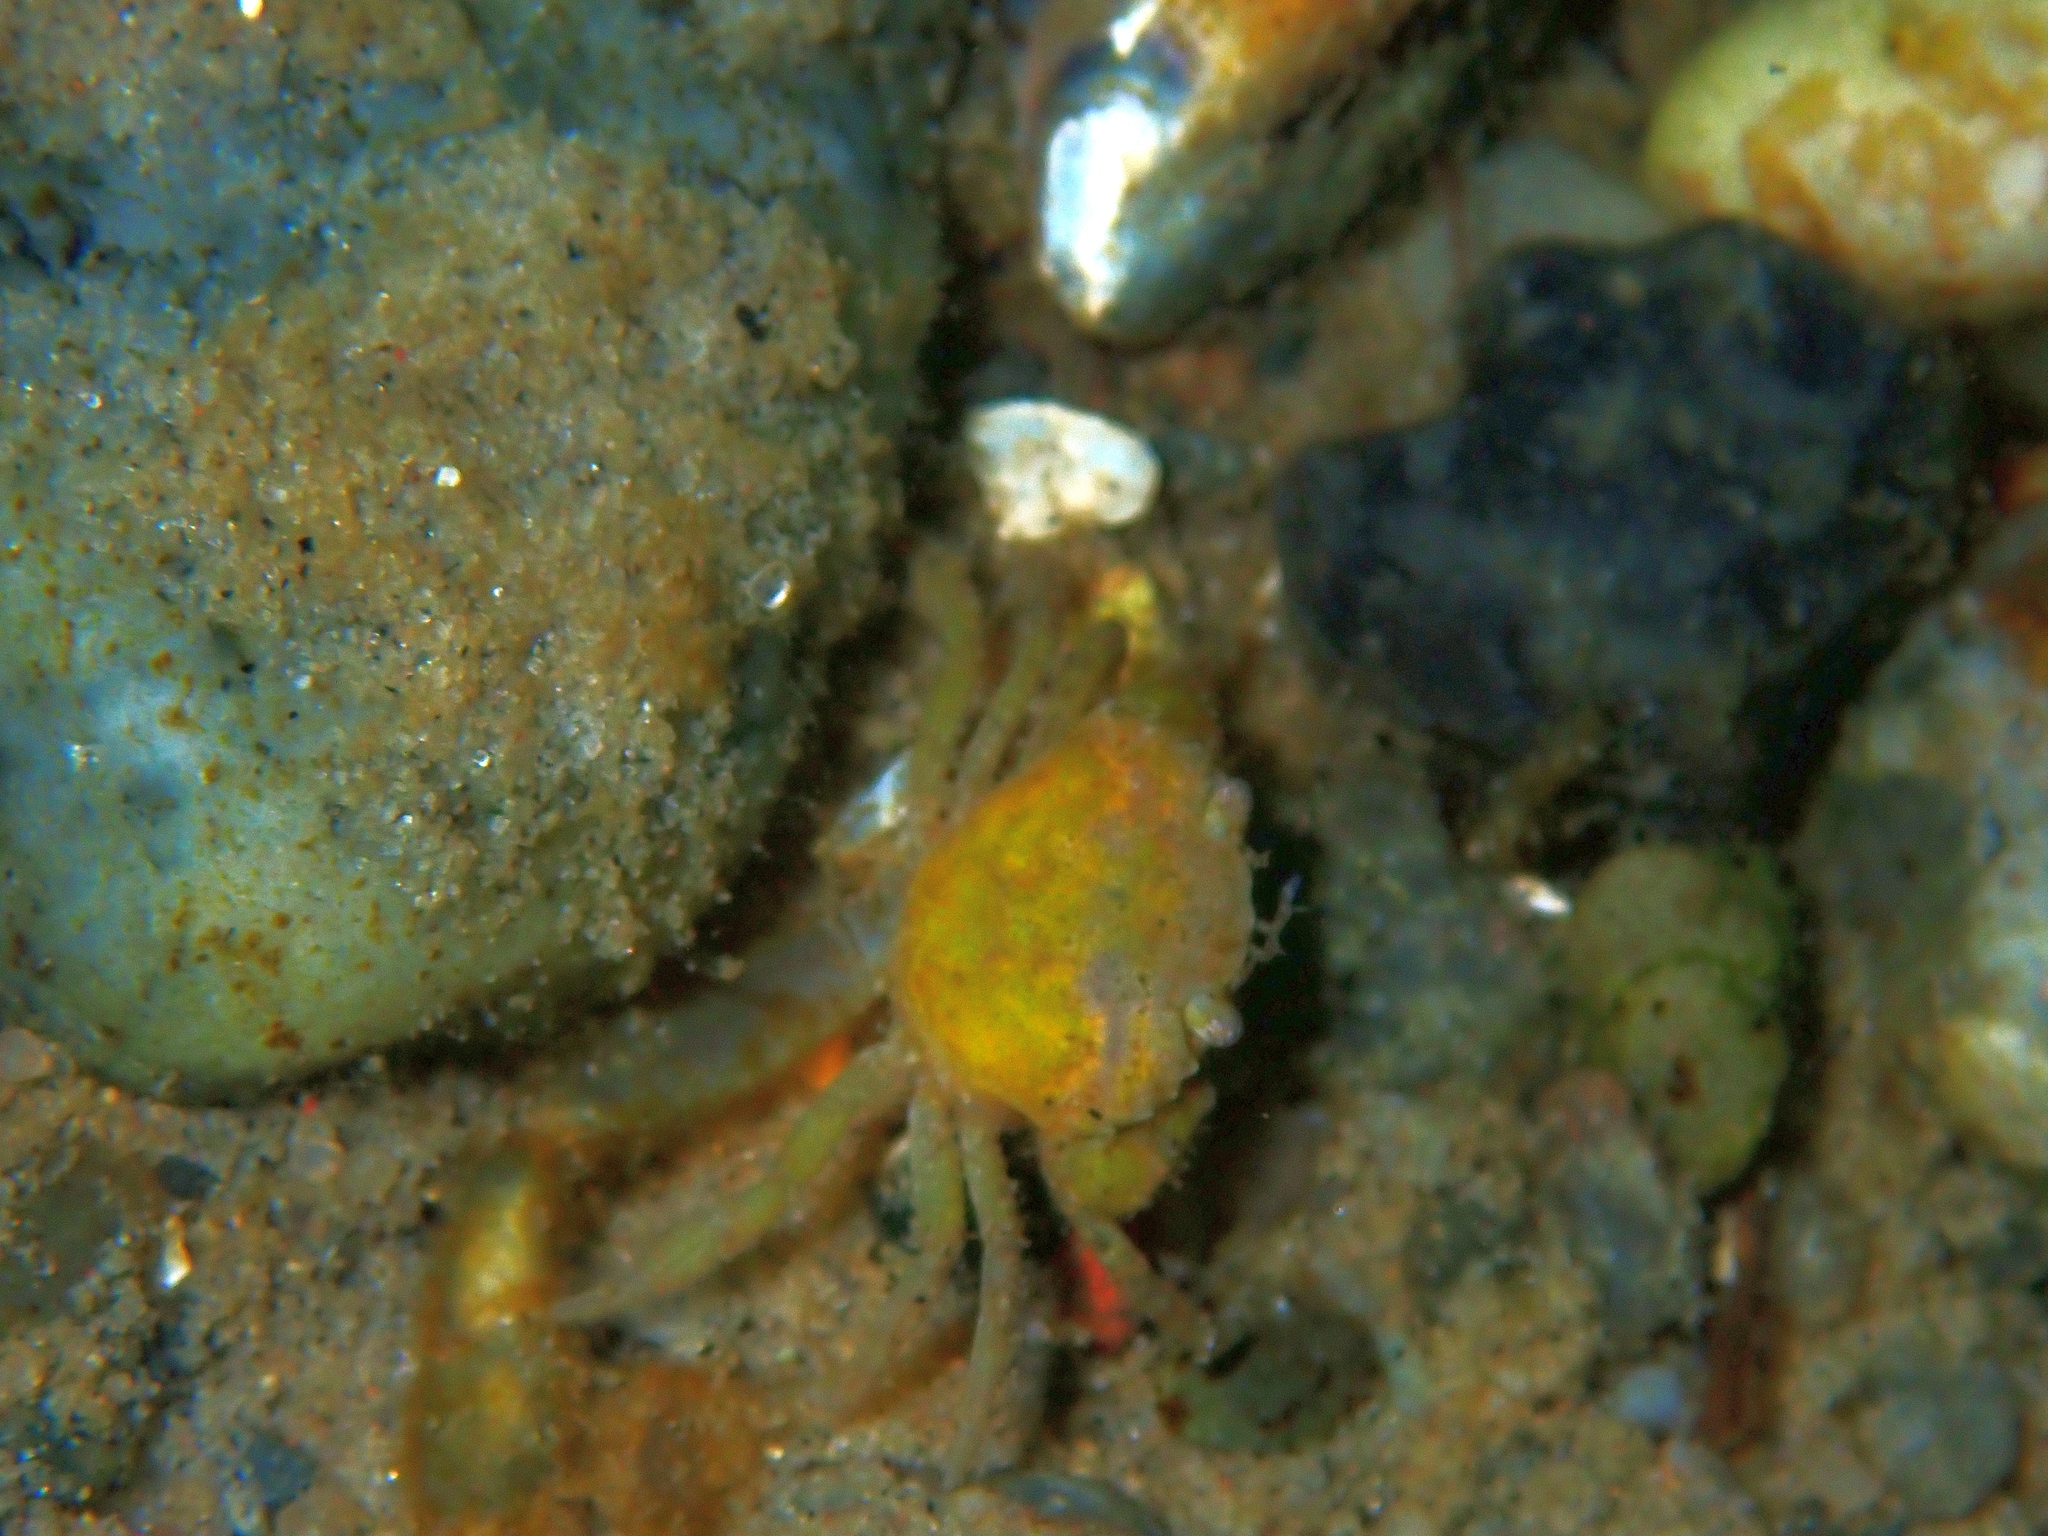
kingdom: Animalia
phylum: Arthropoda
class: Malacostraca
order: Decapoda
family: Carcinidae
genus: Carcinus
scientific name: Carcinus maenas
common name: European green crab
